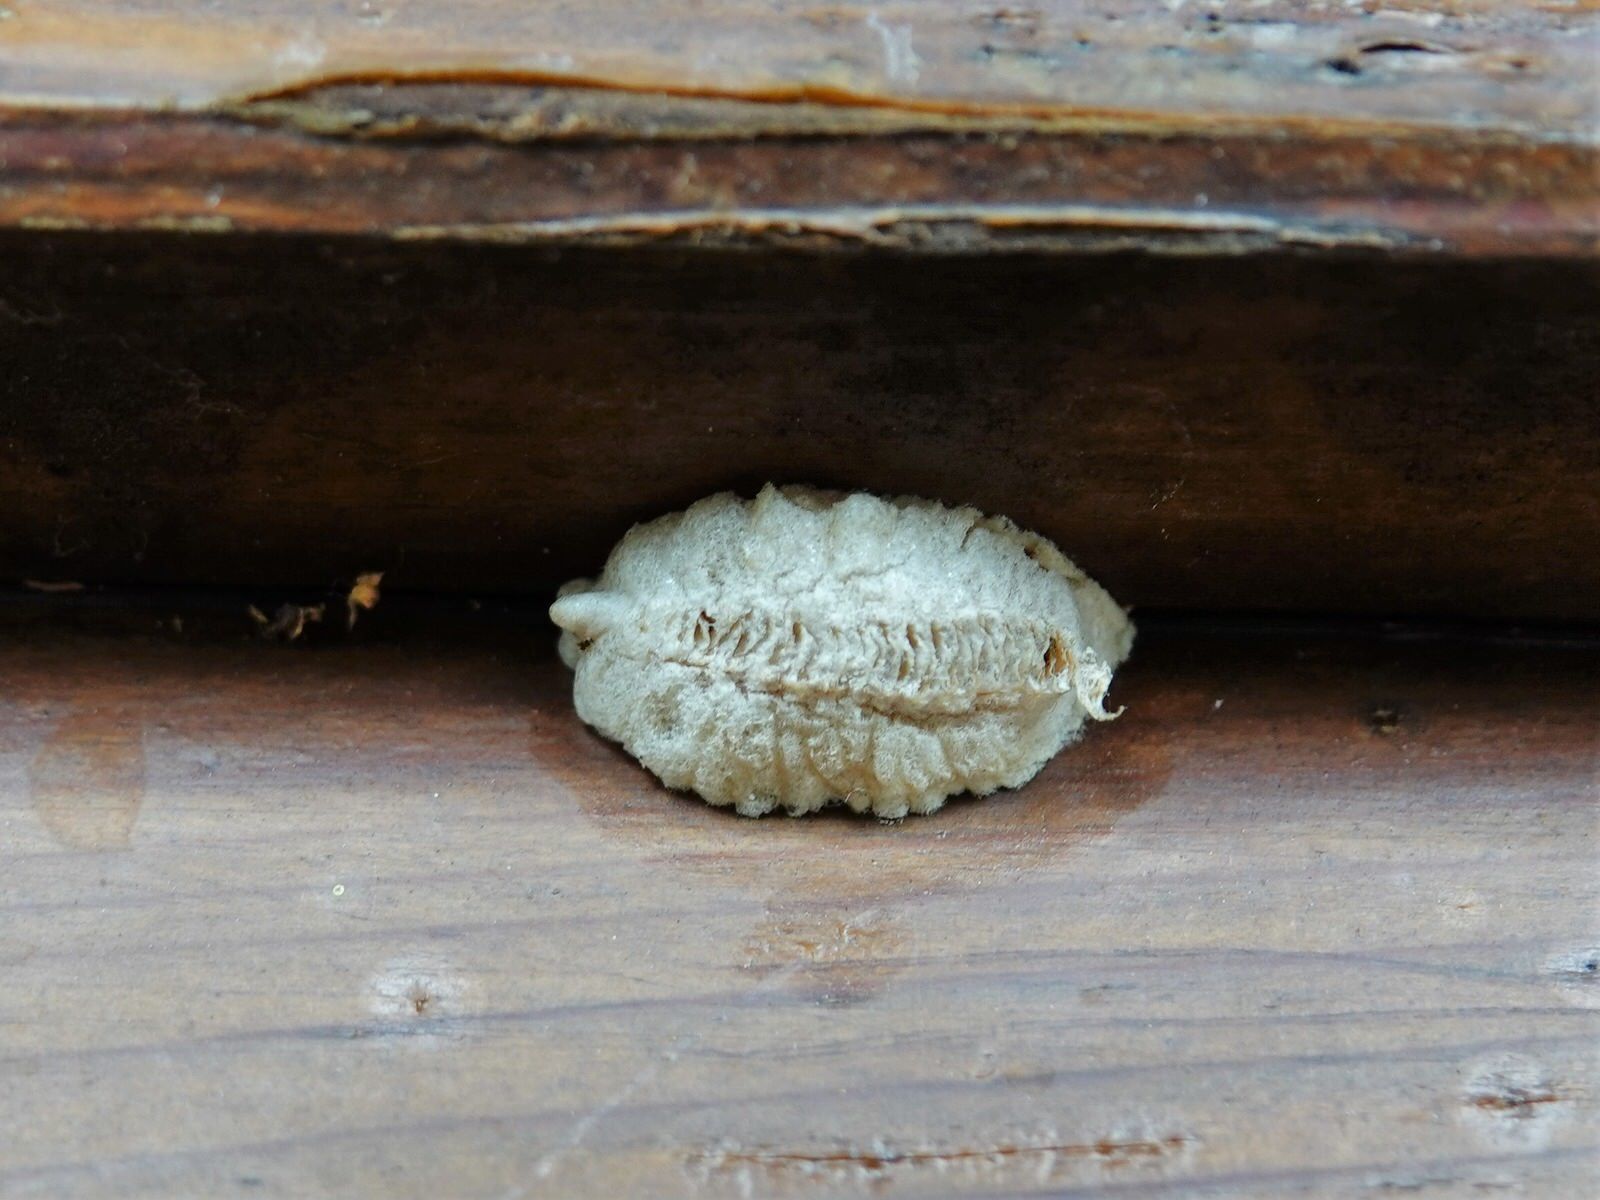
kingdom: Animalia
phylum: Arthropoda
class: Insecta
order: Mantodea
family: Miomantidae
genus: Miomantis
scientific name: Miomantis caffra
